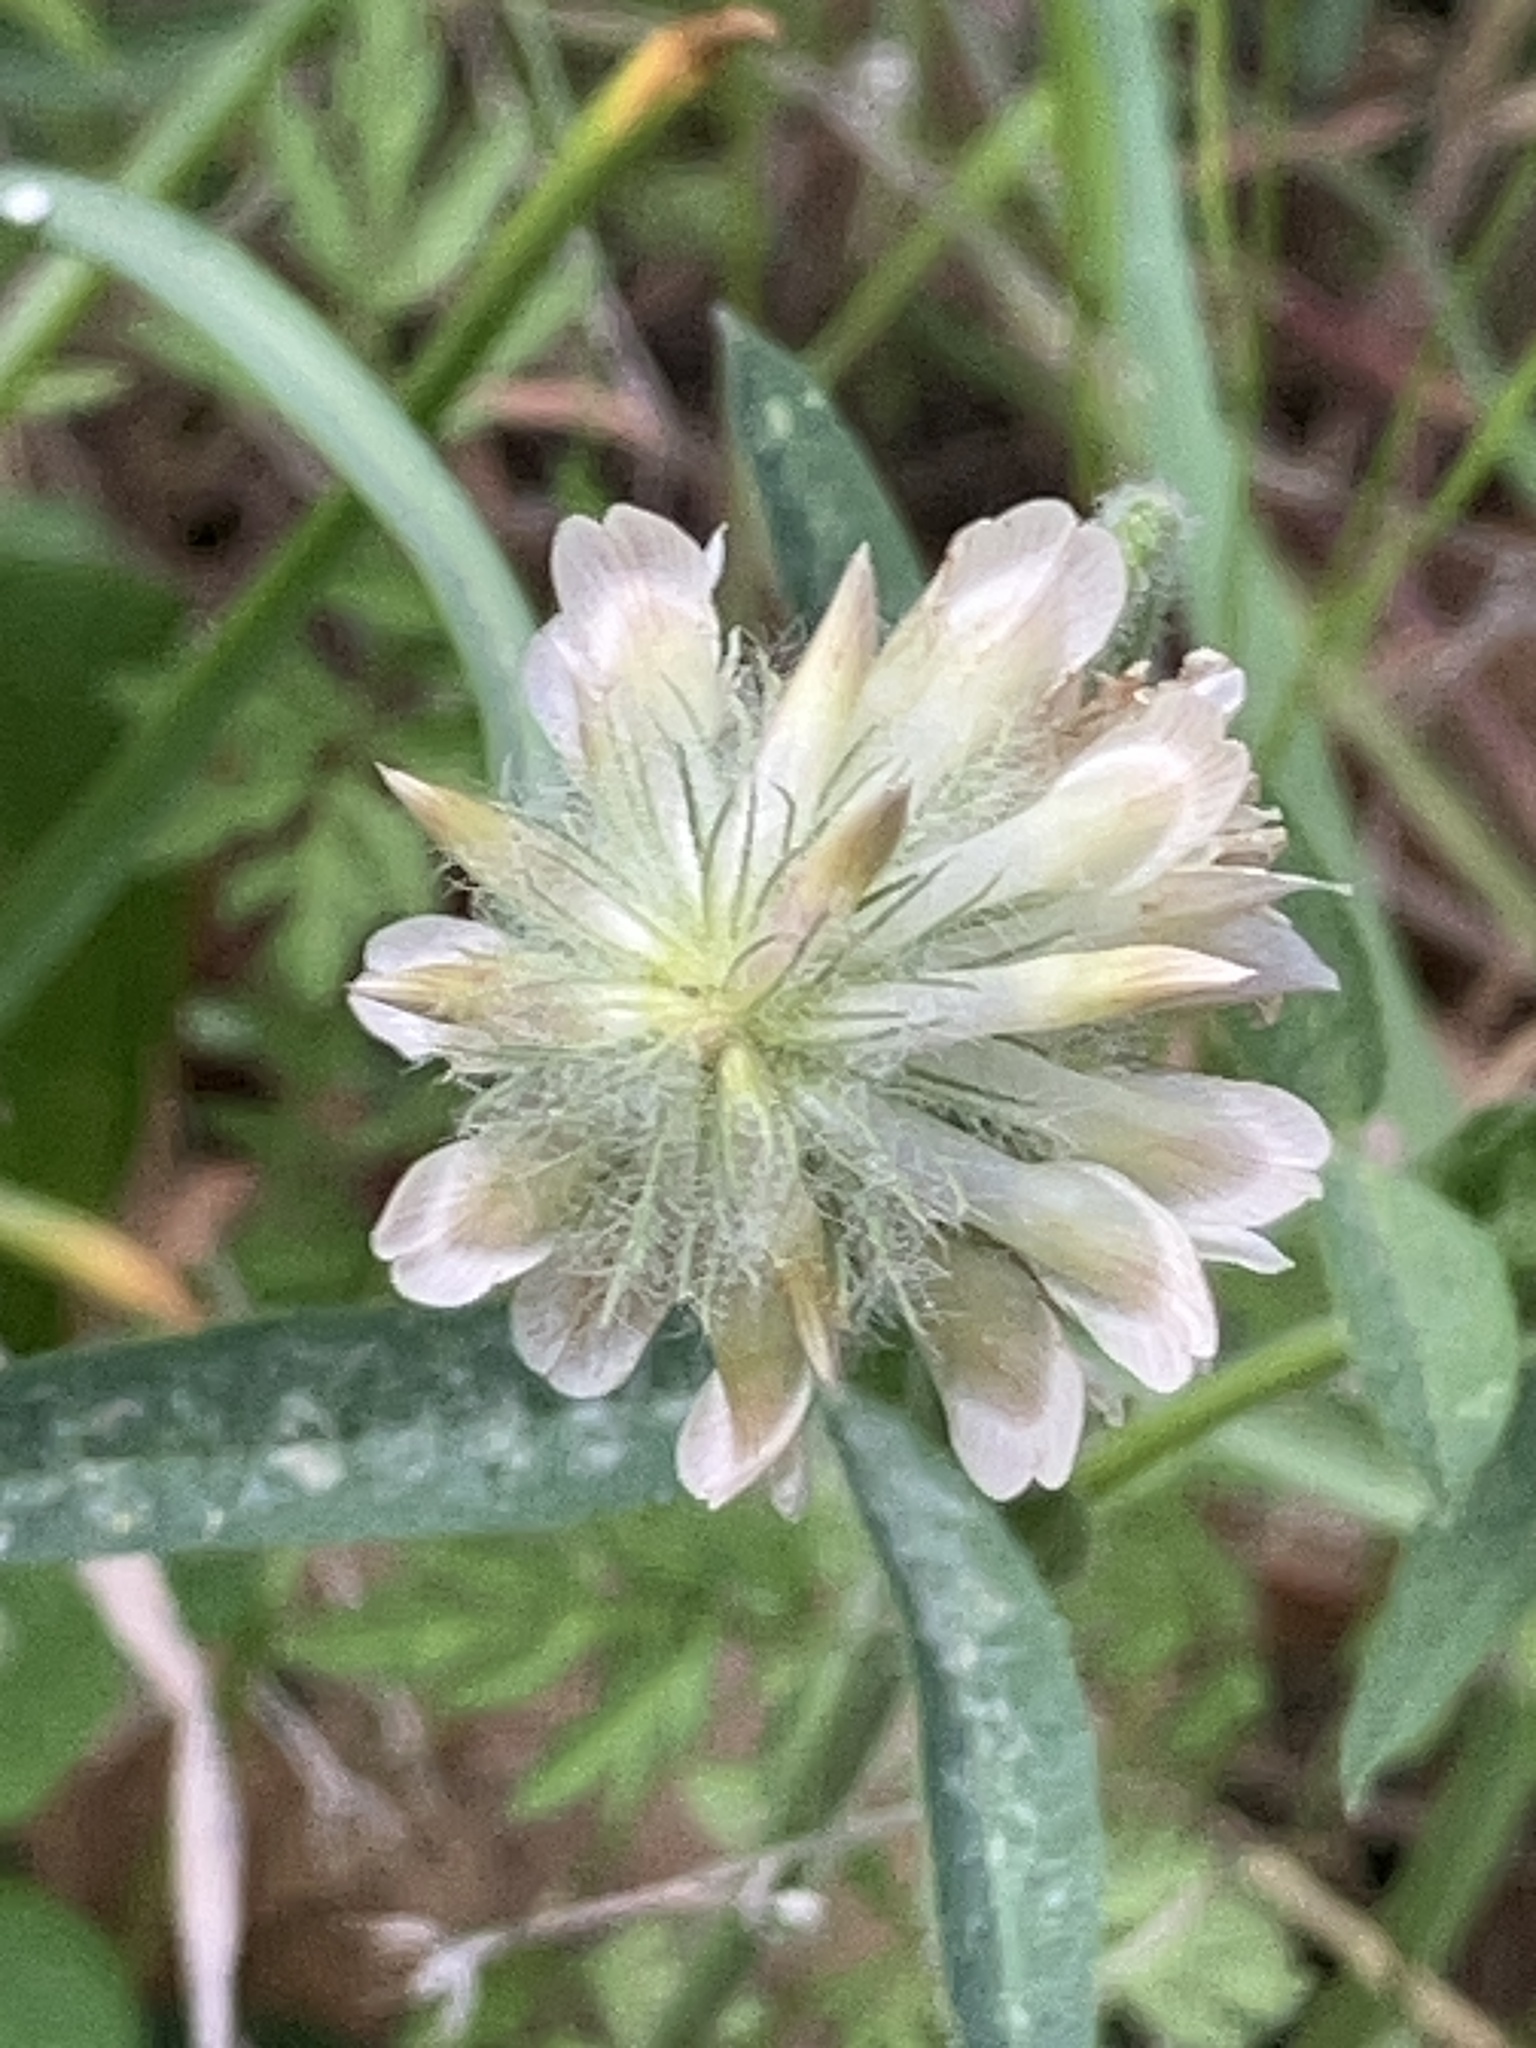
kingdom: Plantae
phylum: Tracheophyta
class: Magnoliopsida
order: Fabales
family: Fabaceae
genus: Trifolium
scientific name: Trifolium eriocephalum
